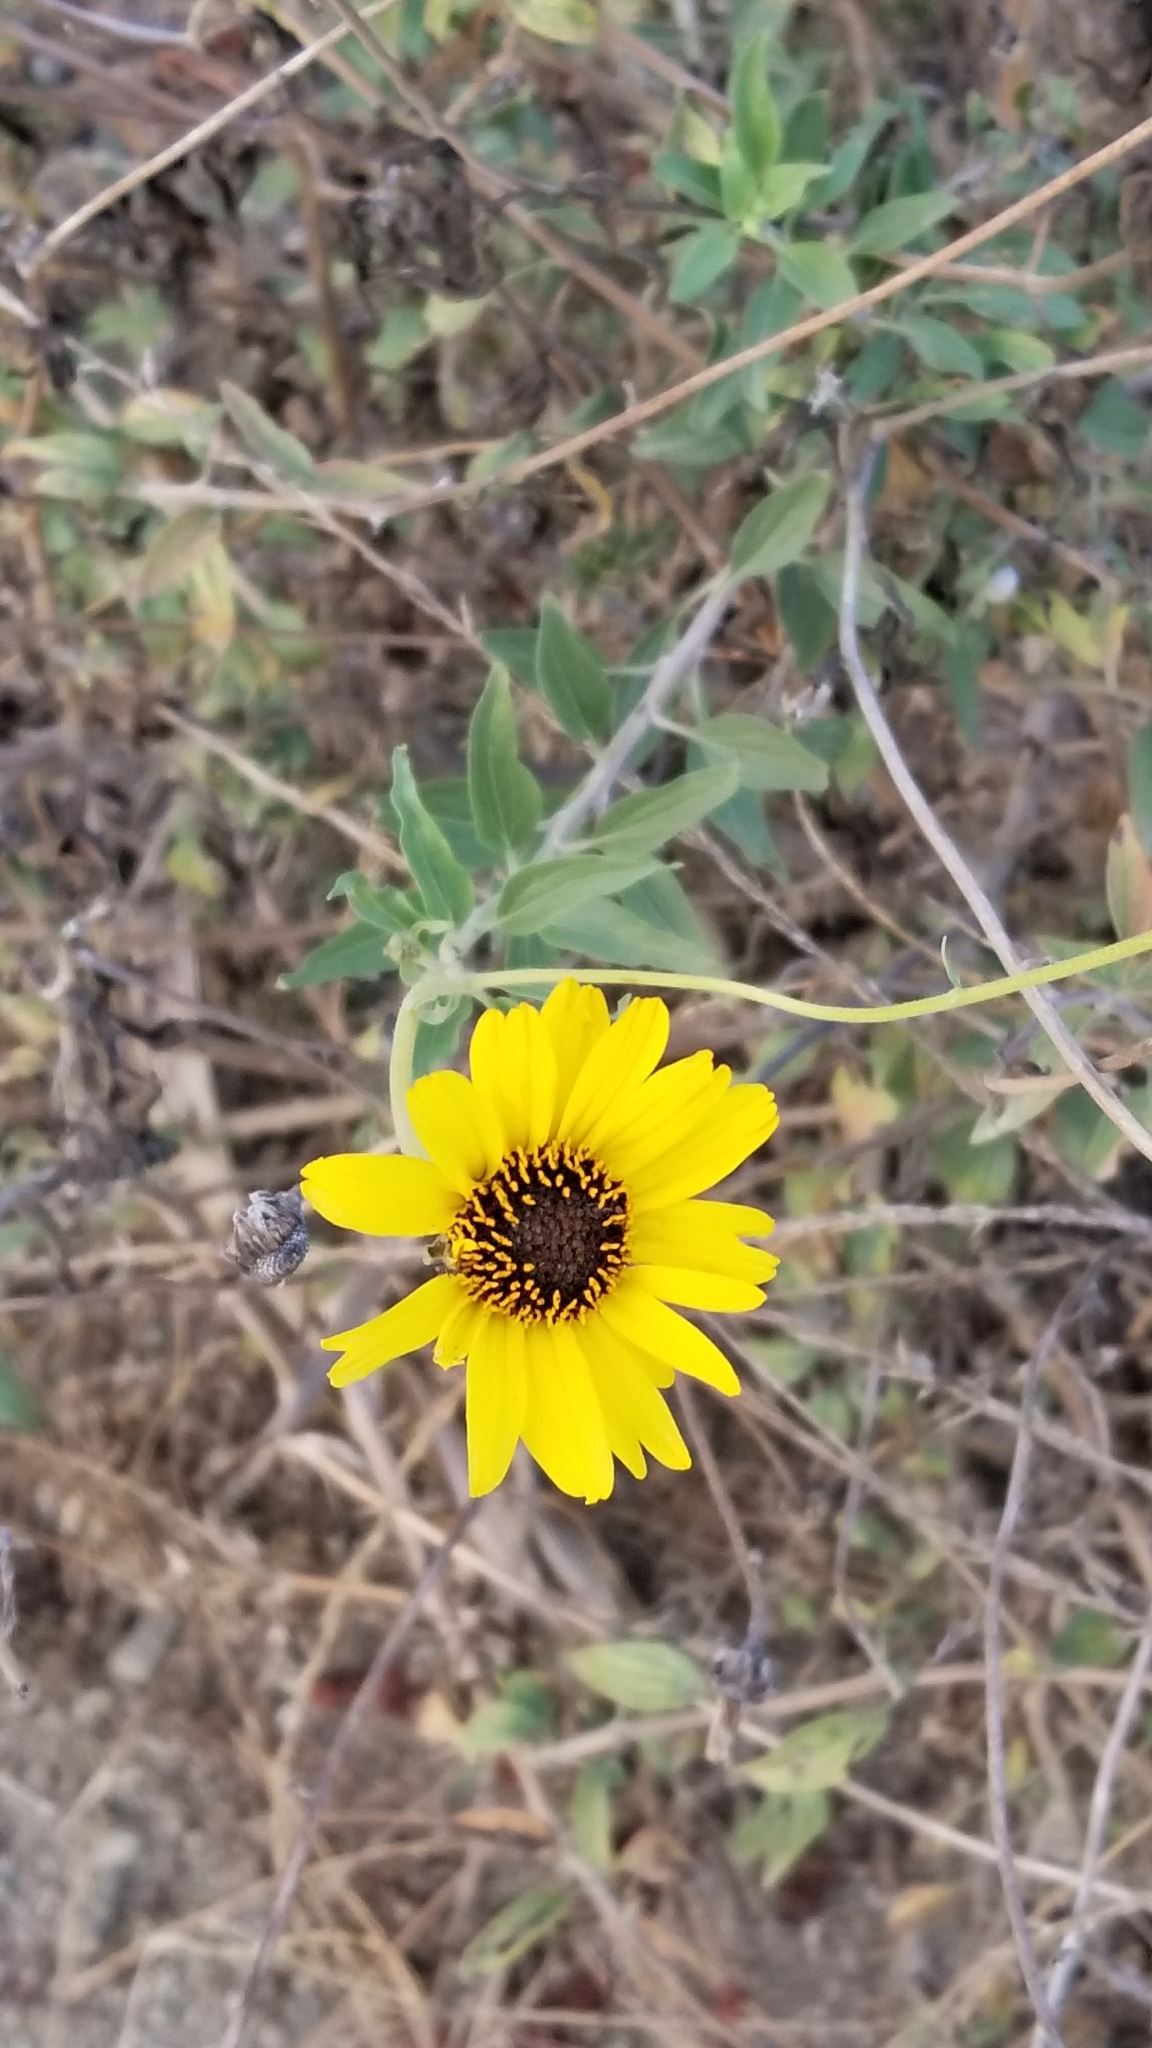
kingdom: Plantae
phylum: Tracheophyta
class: Magnoliopsida
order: Asterales
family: Asteraceae
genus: Encelia
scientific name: Encelia californica
